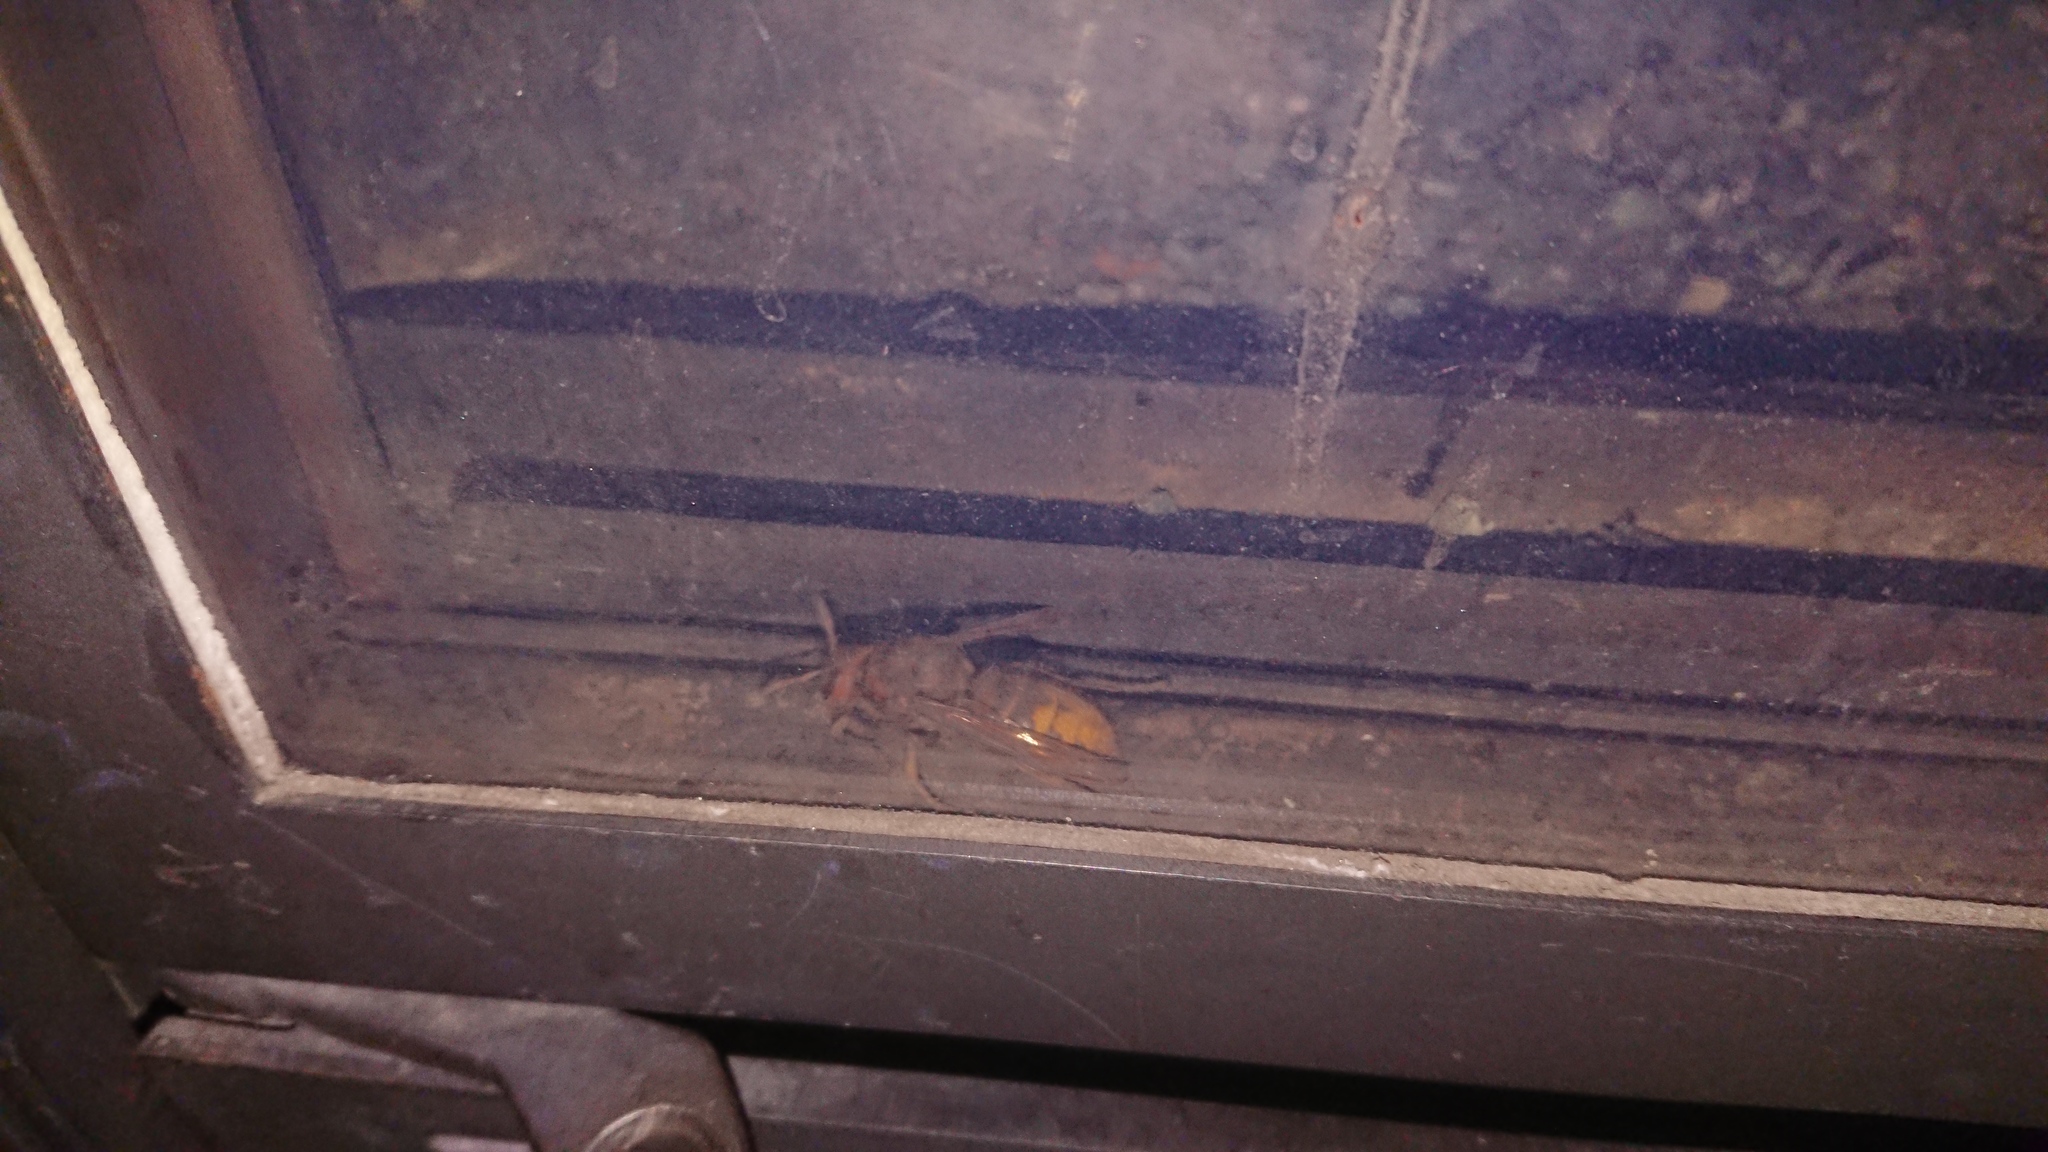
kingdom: Animalia
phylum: Arthropoda
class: Insecta
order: Hymenoptera
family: Vespidae
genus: Vespa
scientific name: Vespa crabro
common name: Hornet
